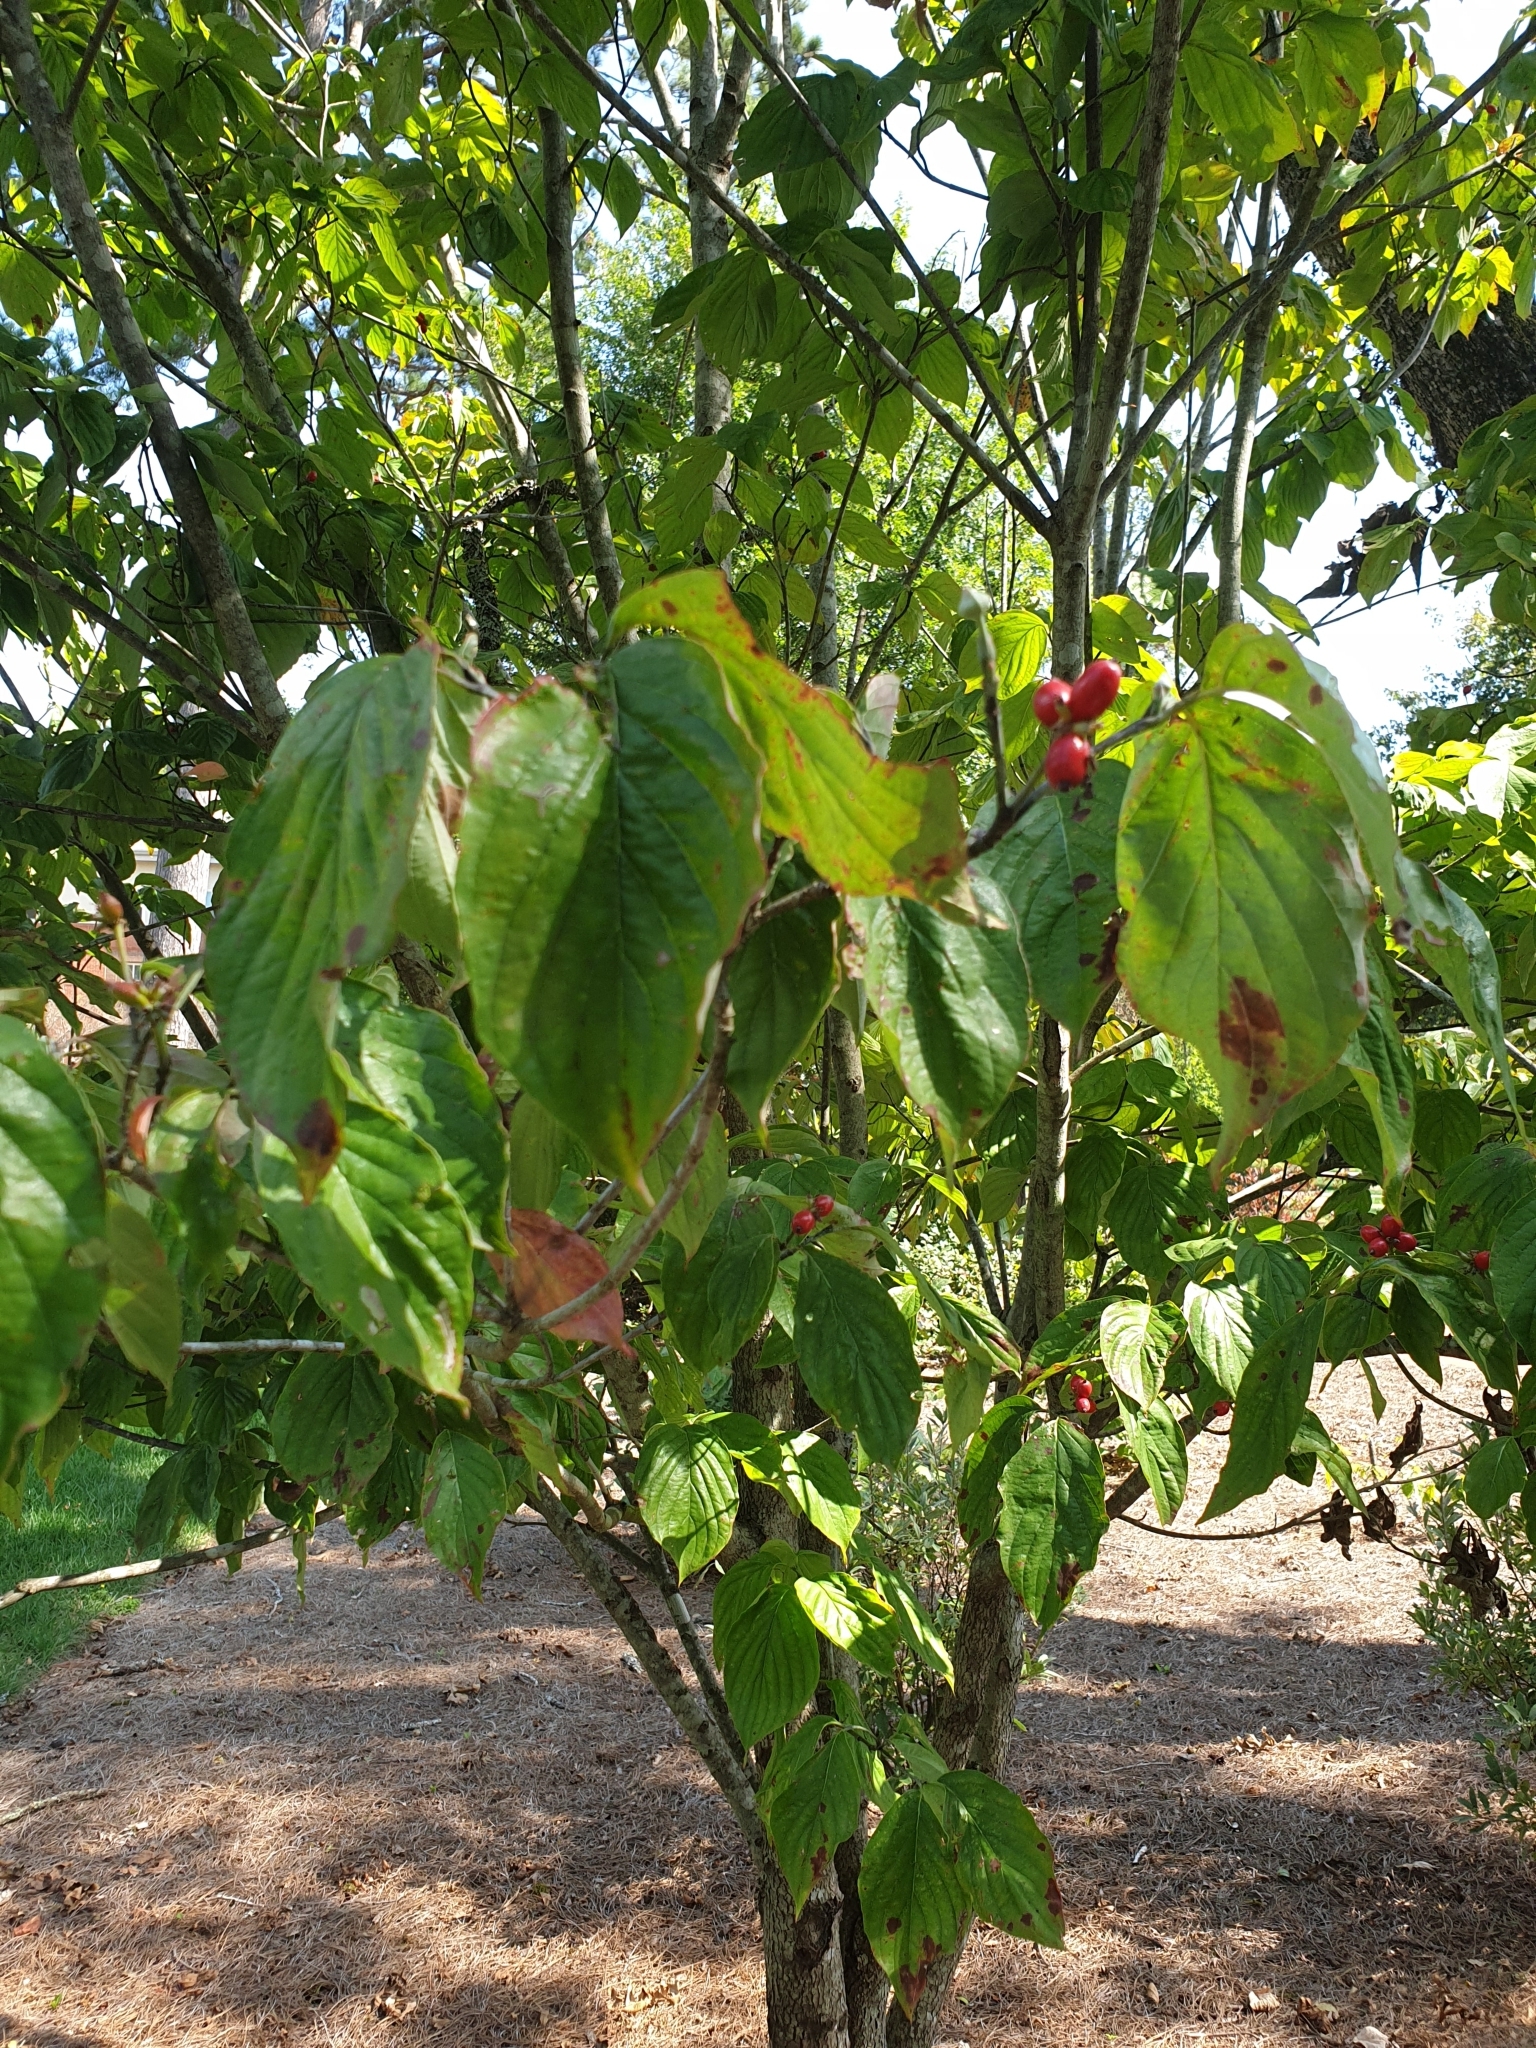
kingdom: Plantae
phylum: Tracheophyta
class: Magnoliopsida
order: Cornales
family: Cornaceae
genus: Cornus
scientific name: Cornus florida
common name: Flowering dogwood
